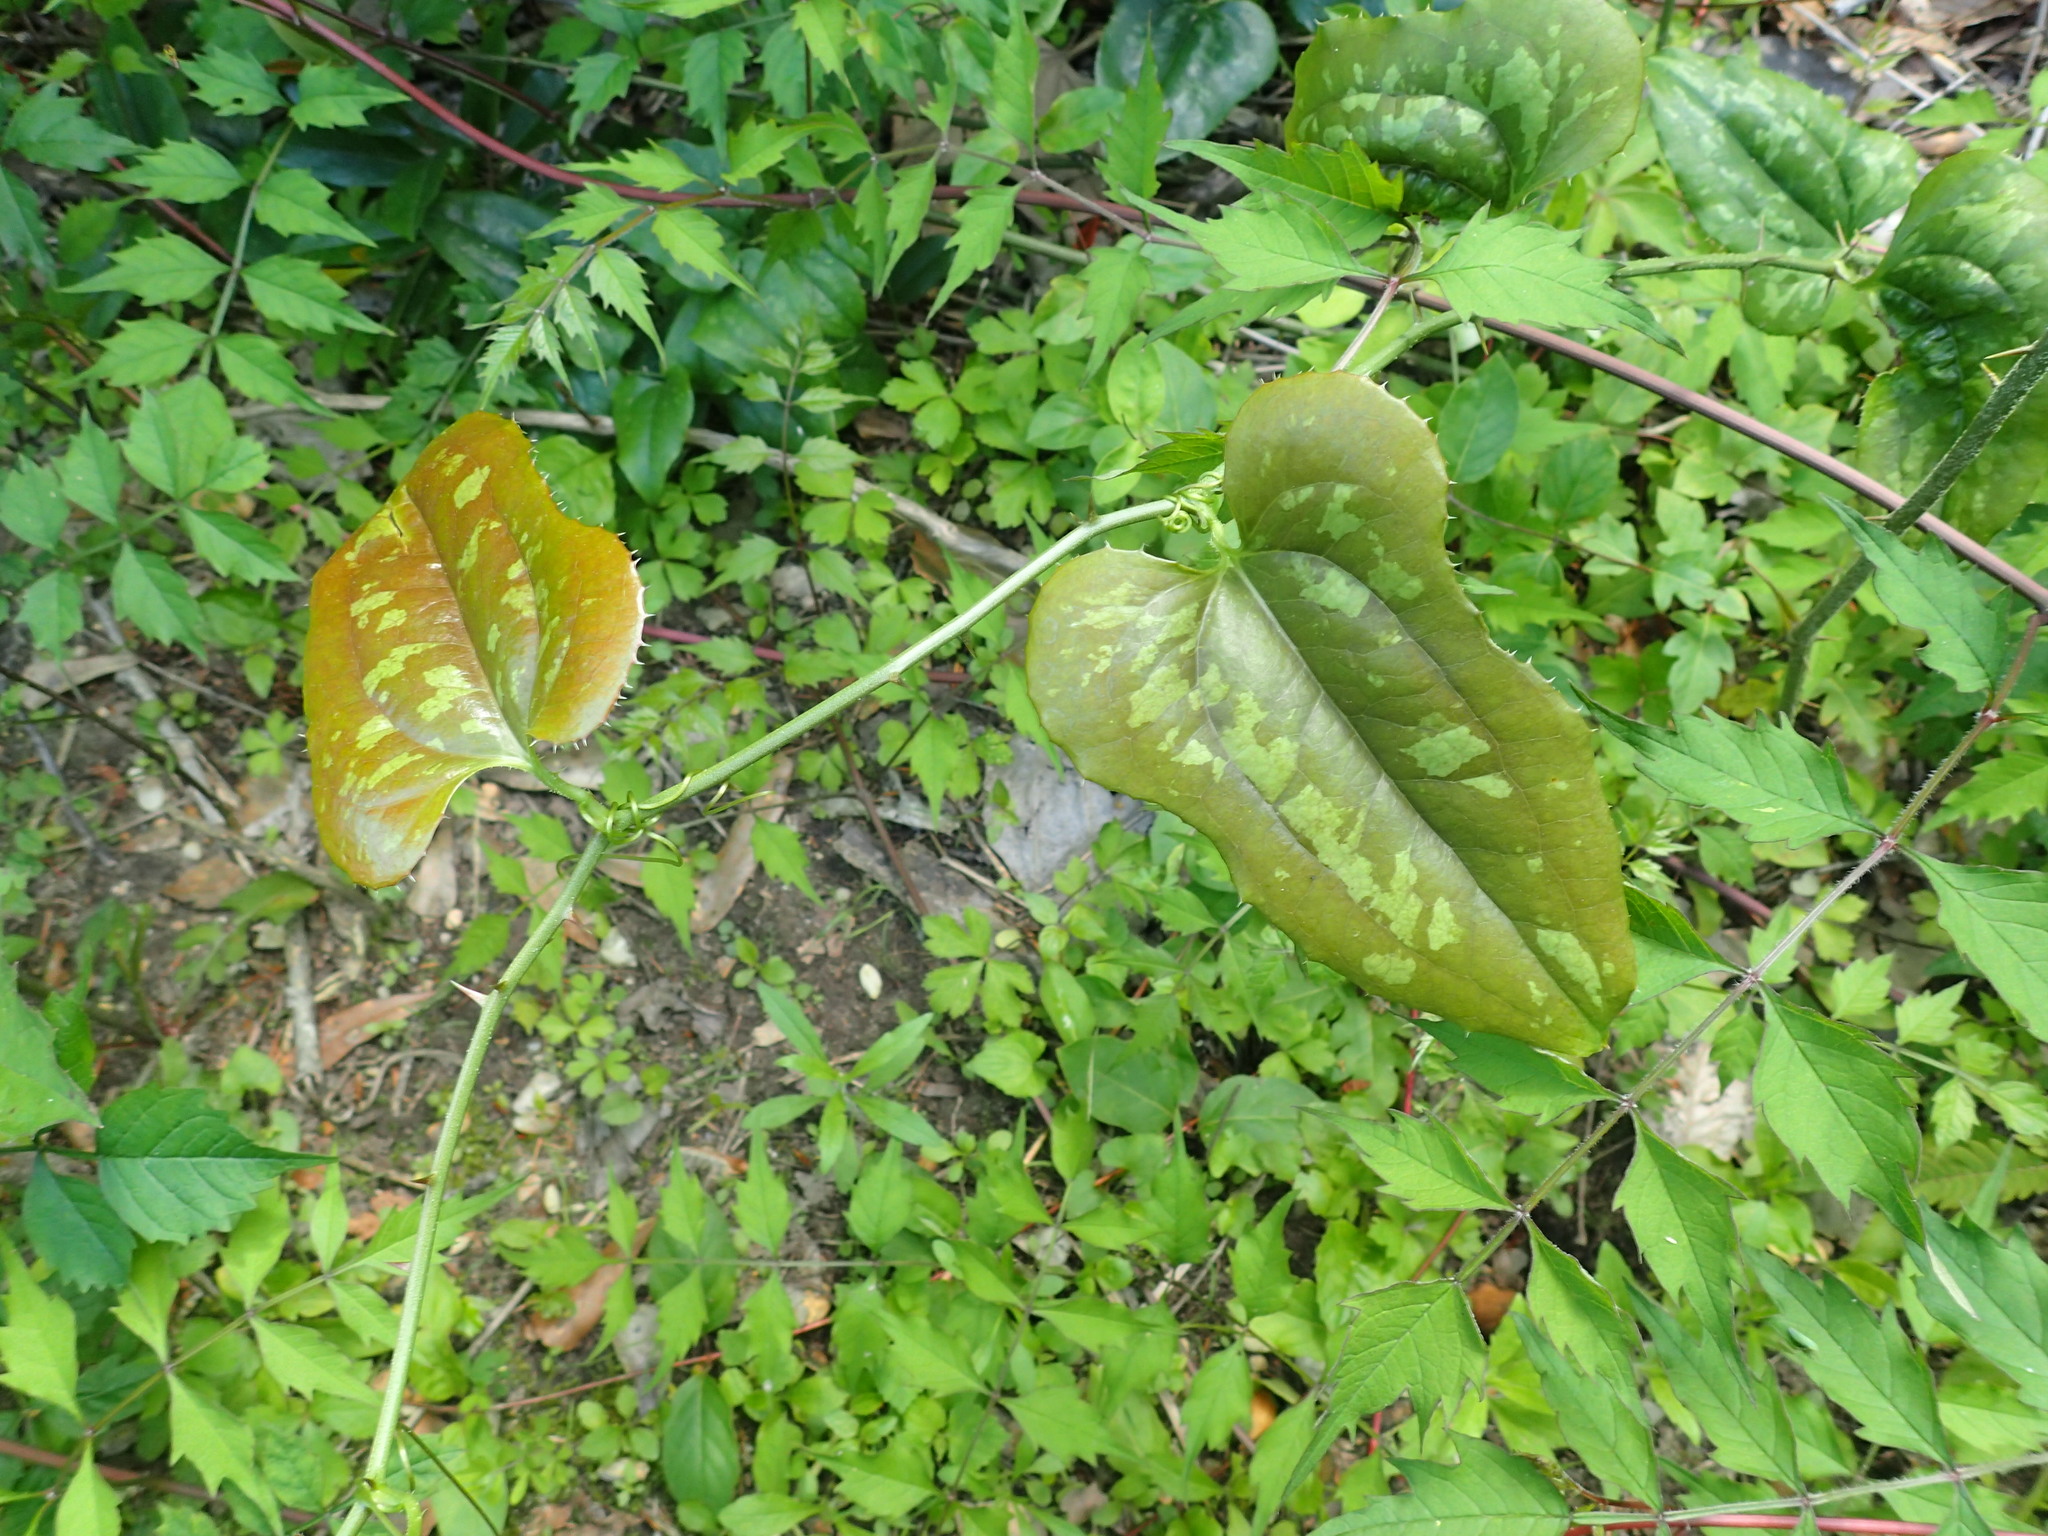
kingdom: Plantae
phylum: Tracheophyta
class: Liliopsida
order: Liliales
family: Smilacaceae
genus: Smilax
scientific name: Smilax bona-nox
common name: Catbrier
